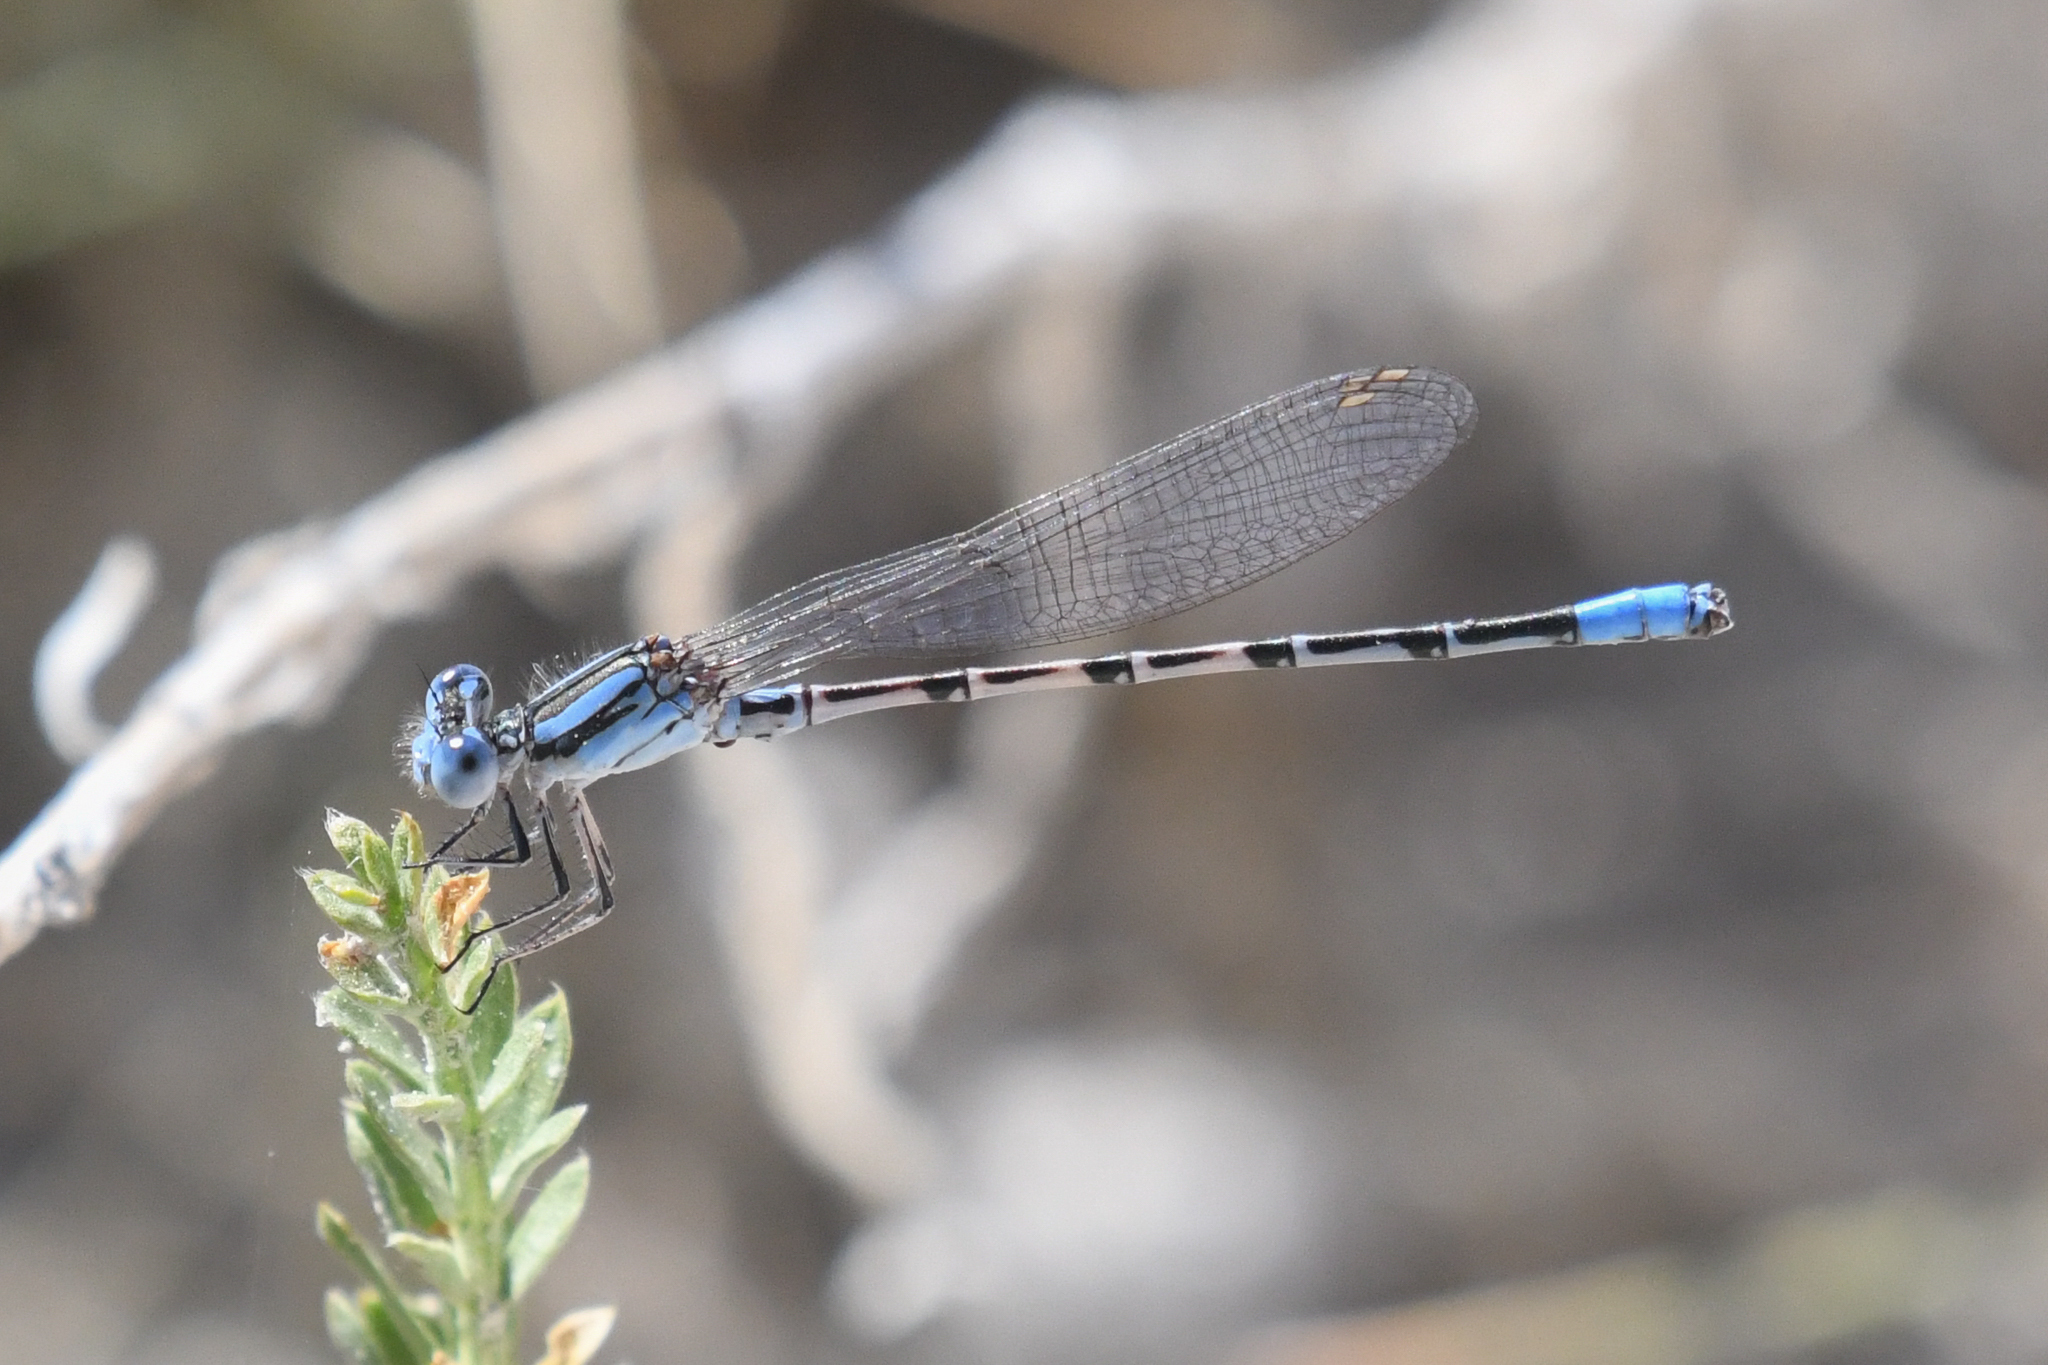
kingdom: Animalia
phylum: Arthropoda
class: Insecta
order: Odonata
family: Coenagrionidae
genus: Argia
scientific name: Argia alberta
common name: Paiute dancer
